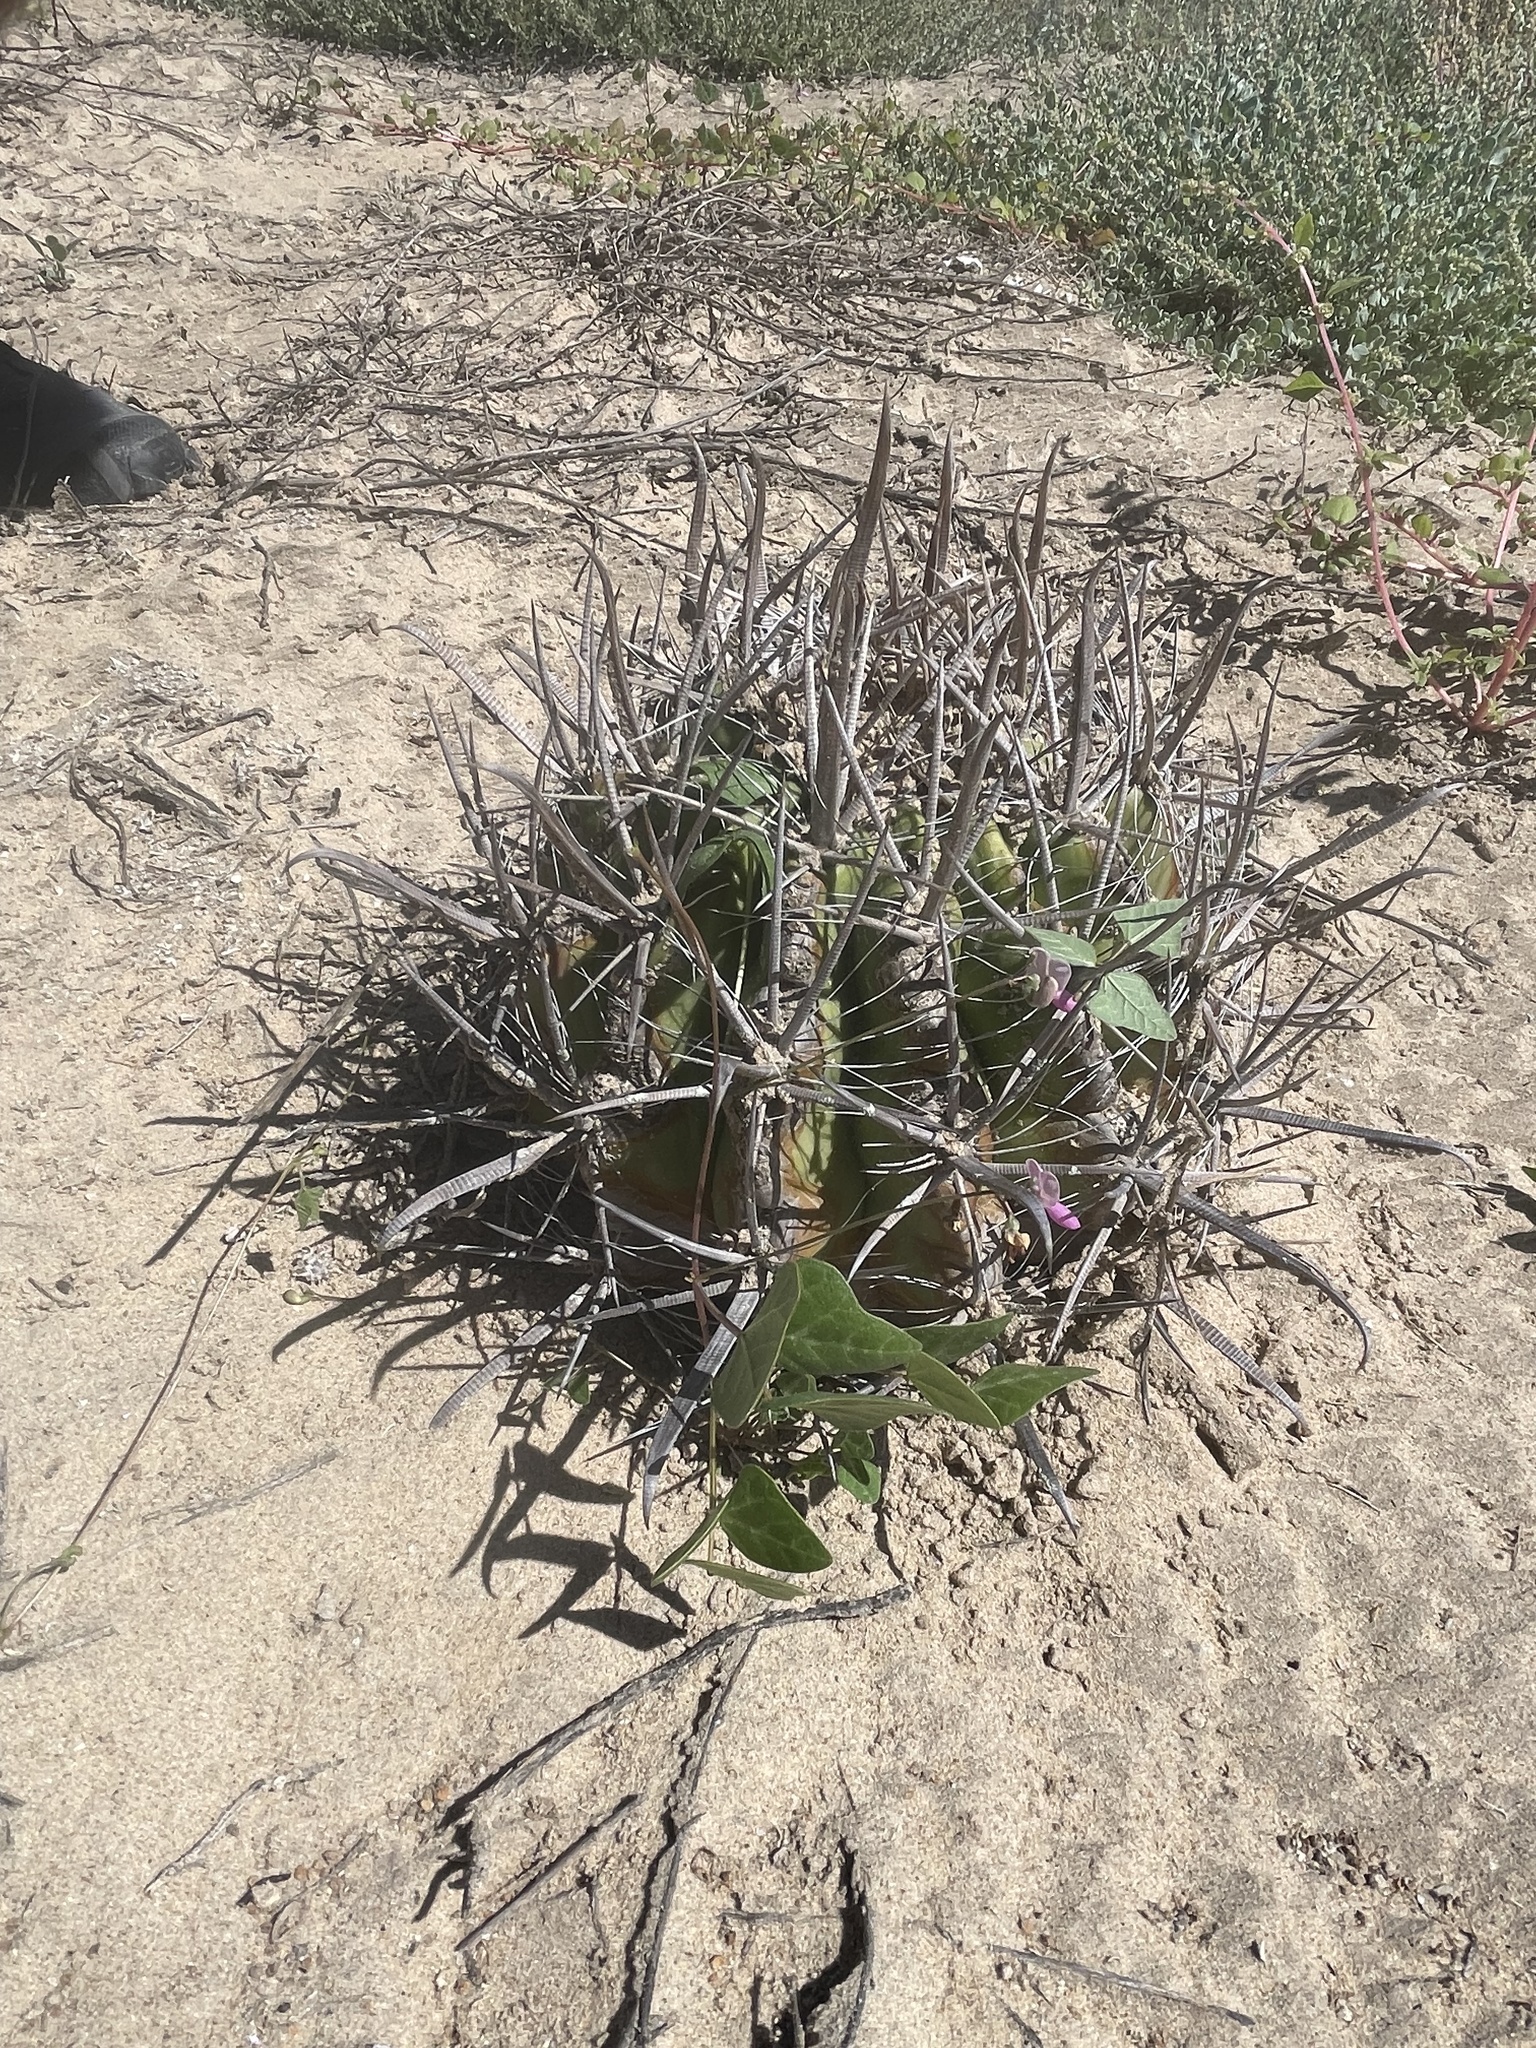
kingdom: Plantae
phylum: Tracheophyta
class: Magnoliopsida
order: Caryophyllales
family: Cactaceae
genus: Ferocactus
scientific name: Ferocactus santa-maria
